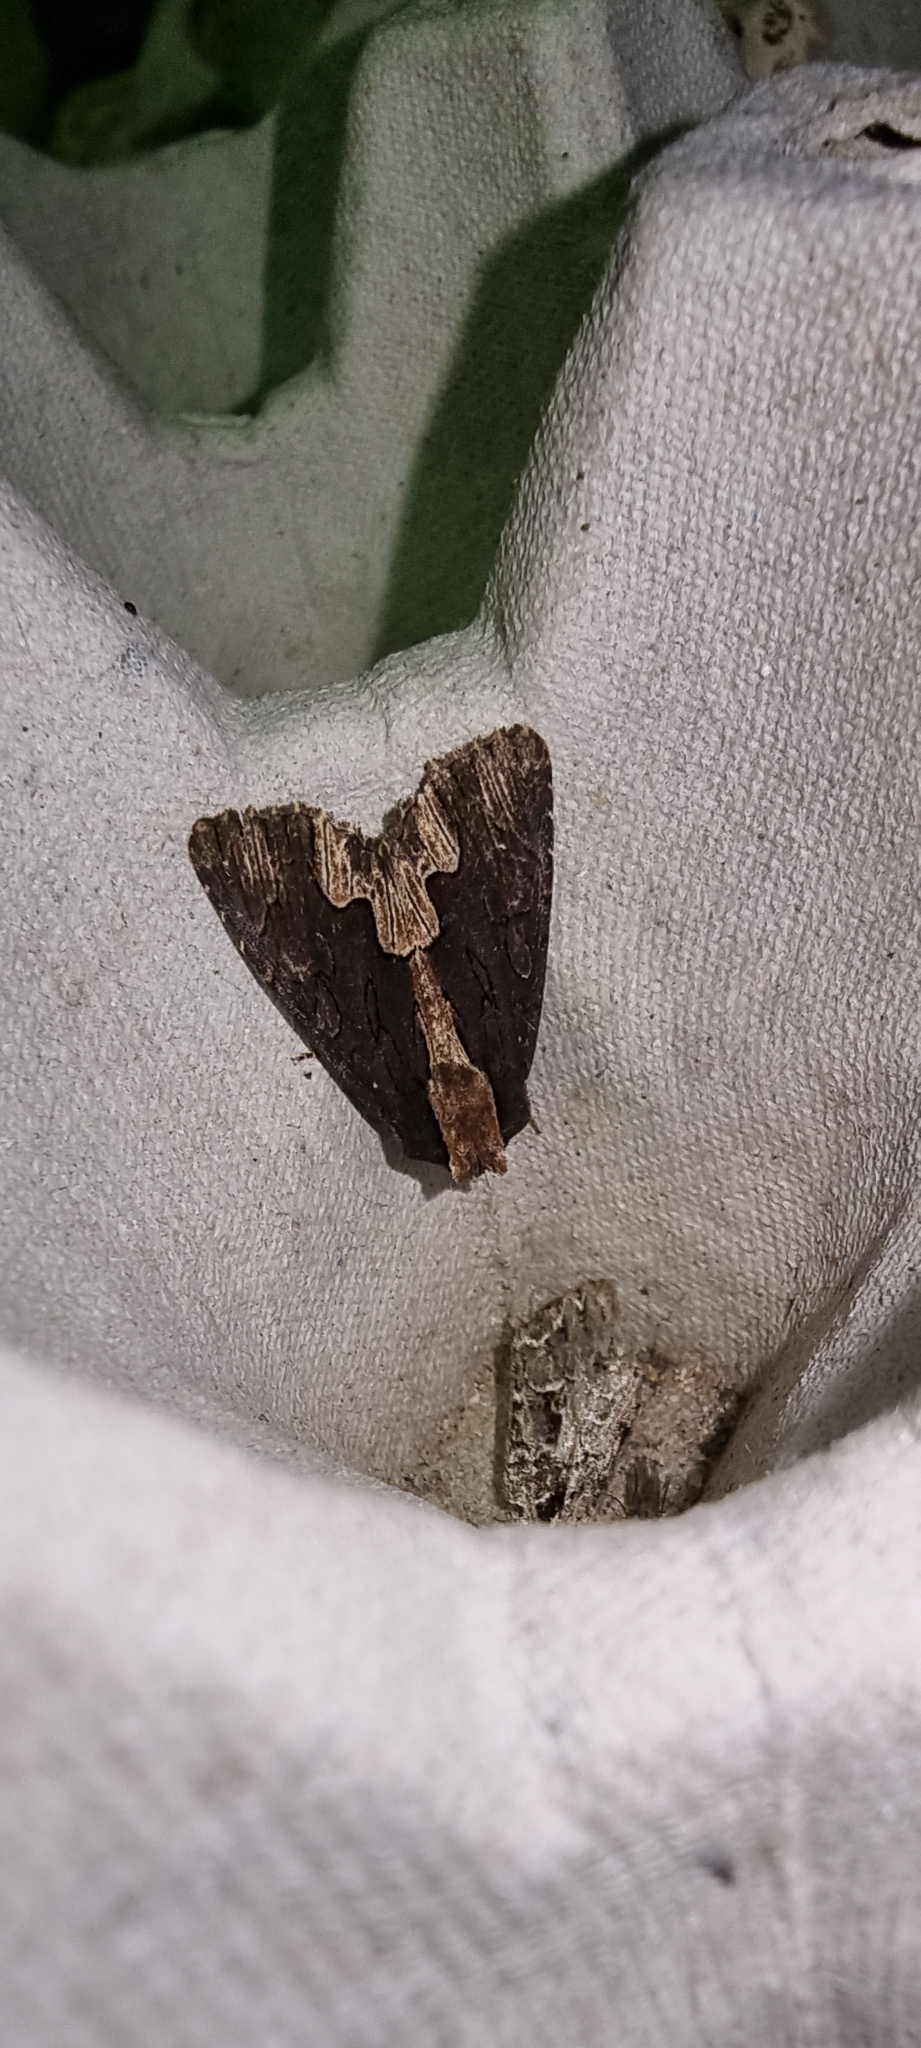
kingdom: Animalia
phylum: Arthropoda
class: Insecta
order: Lepidoptera
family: Noctuidae
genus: Dypterygia
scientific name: Dypterygia scabriuscula
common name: Bird's wing
